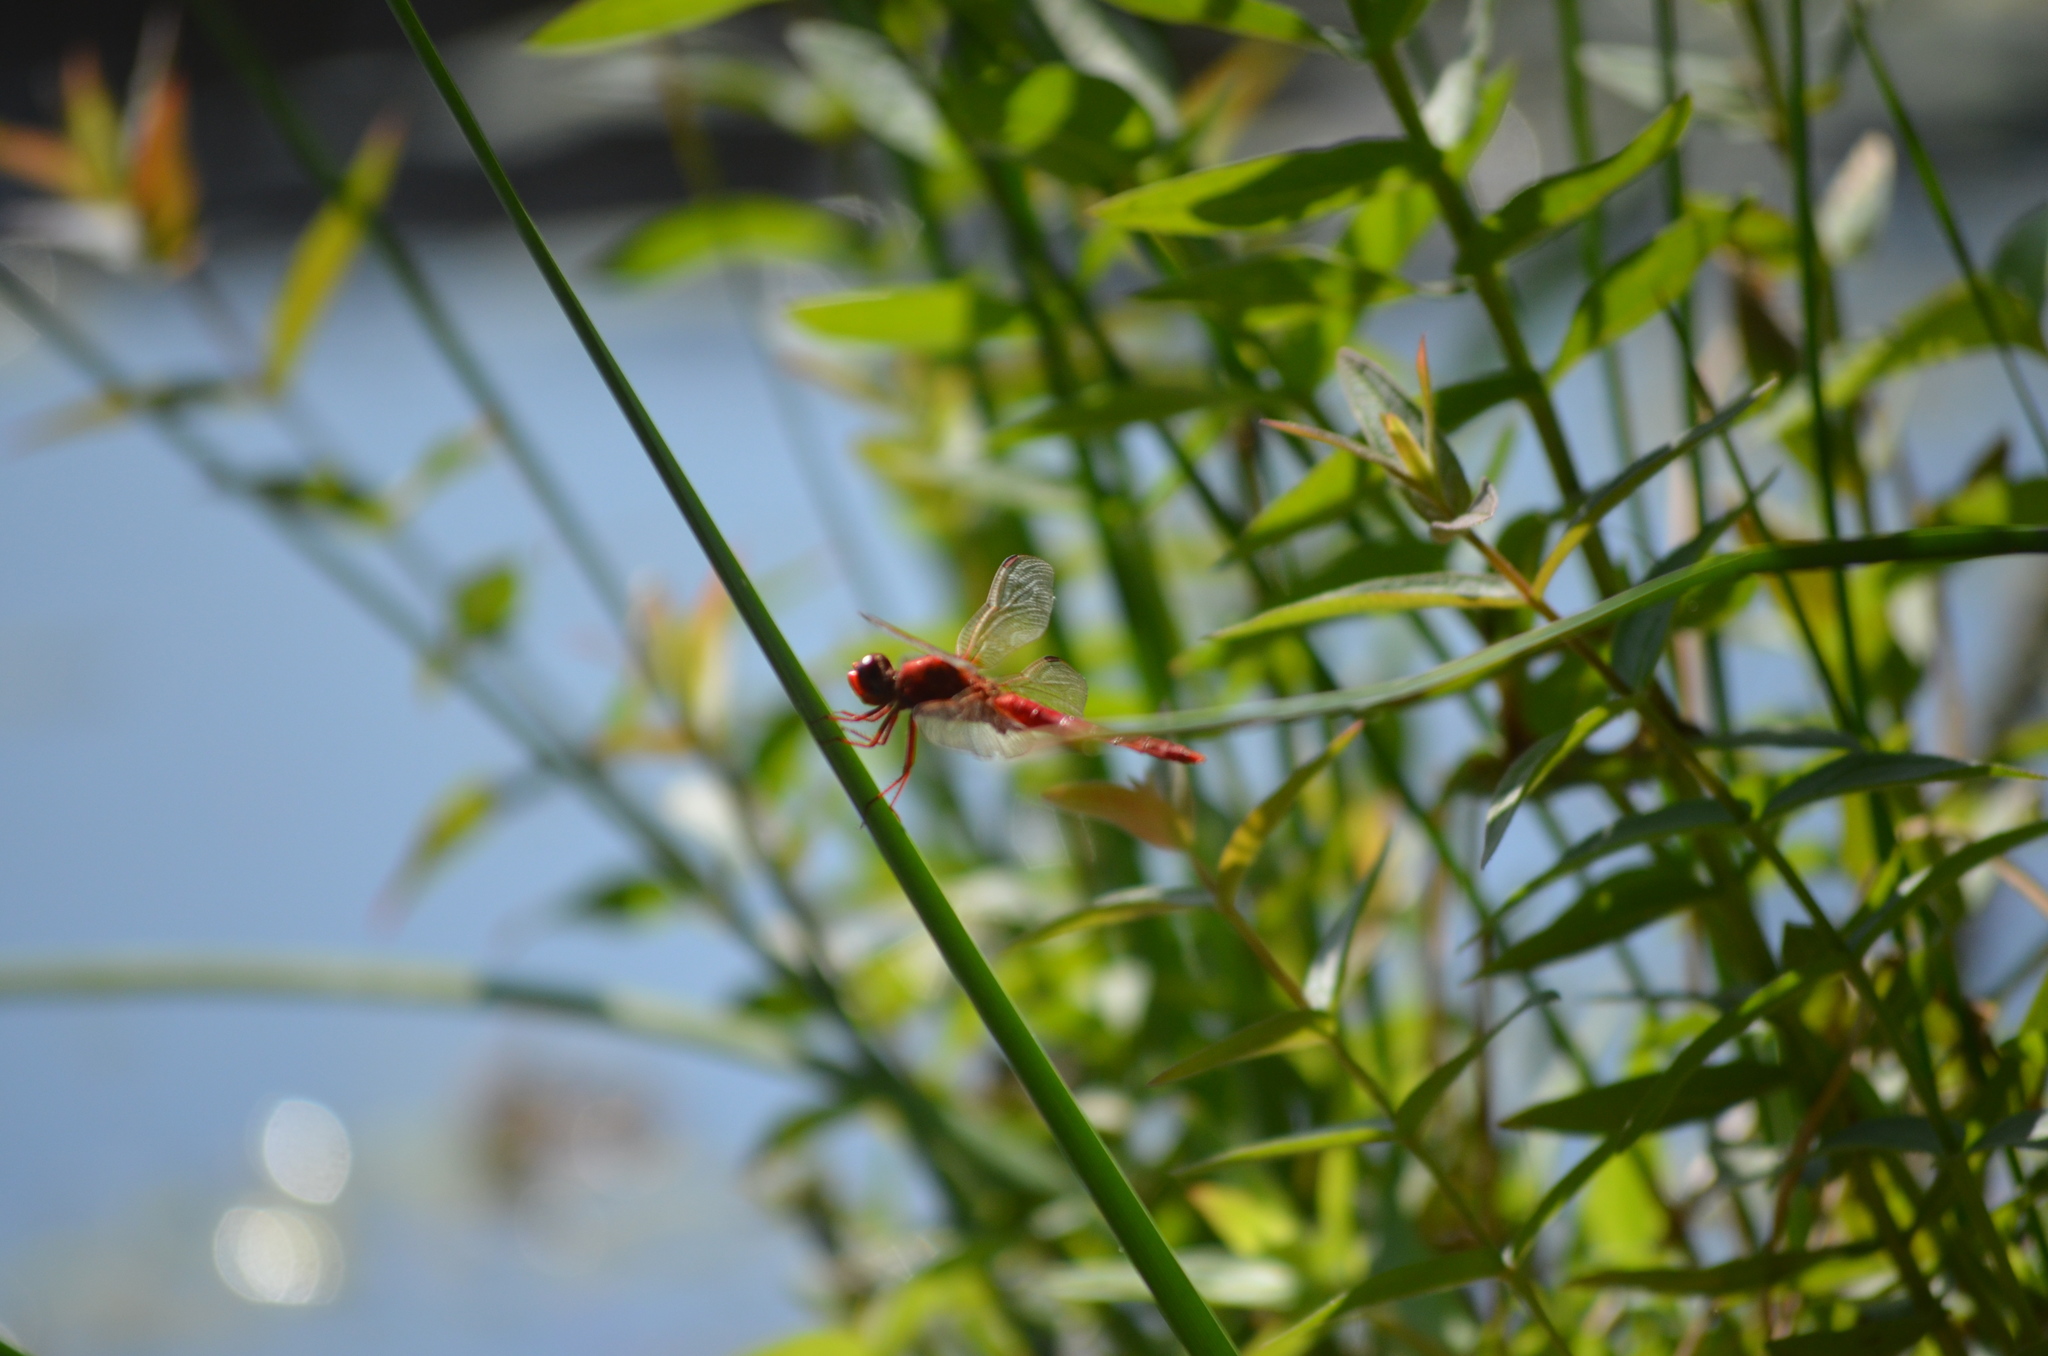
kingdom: Animalia
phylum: Arthropoda
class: Insecta
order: Odonata
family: Libellulidae
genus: Crocothemis
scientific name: Crocothemis erythraea
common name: Scarlet dragonfly
